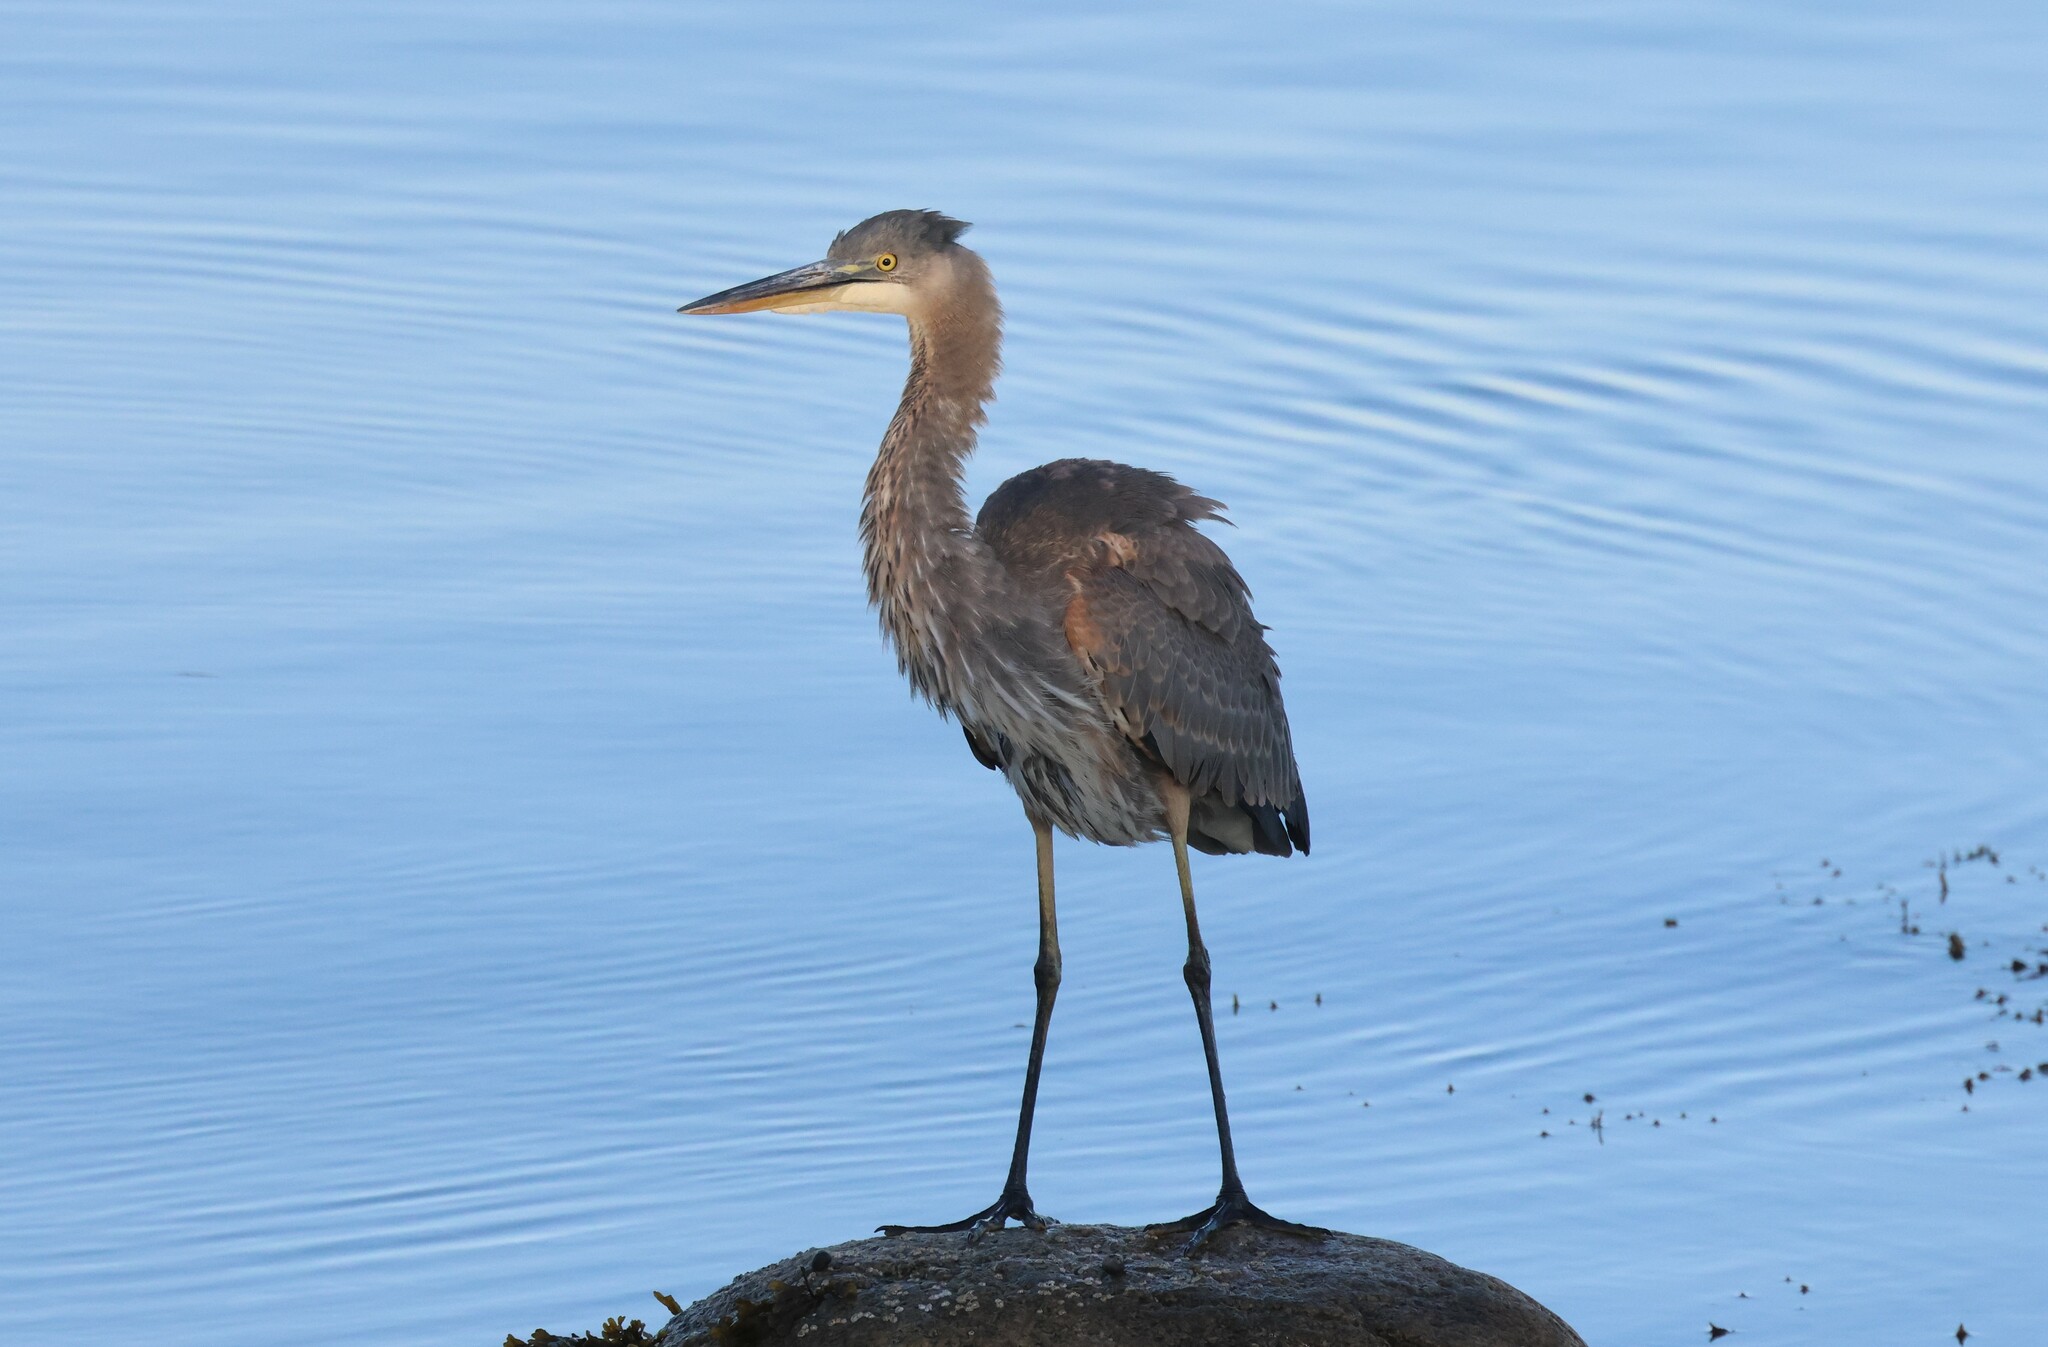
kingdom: Animalia
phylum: Chordata
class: Aves
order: Pelecaniformes
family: Ardeidae
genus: Ardea
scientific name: Ardea herodias
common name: Great blue heron
